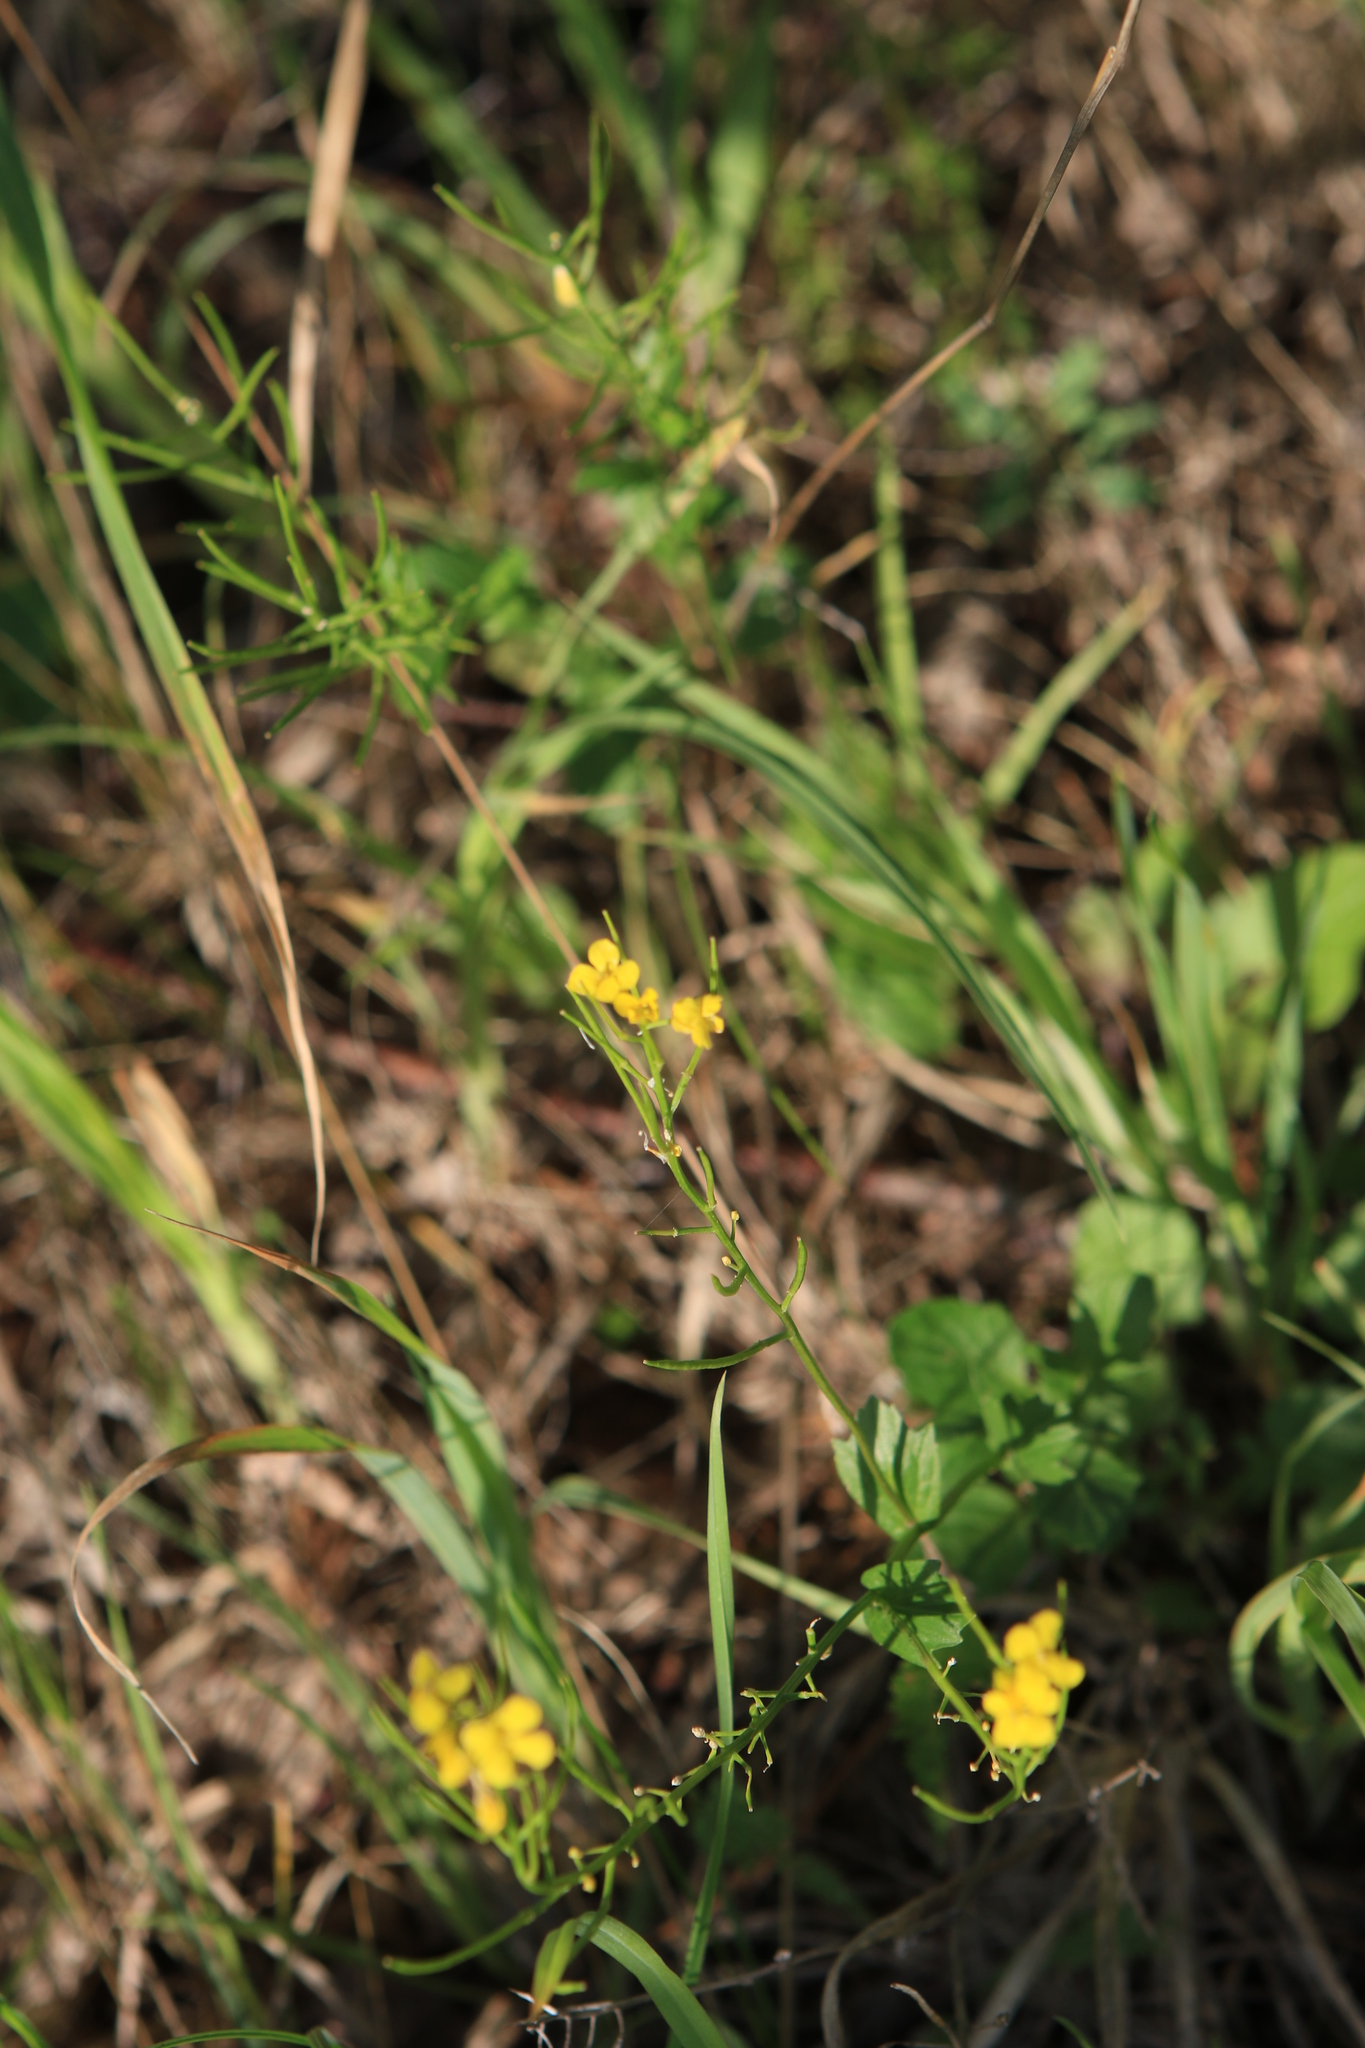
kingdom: Plantae
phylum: Tracheophyta
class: Magnoliopsida
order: Brassicales
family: Brassicaceae
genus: Barbarea
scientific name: Barbarea vulgaris
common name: Cressy-greens
